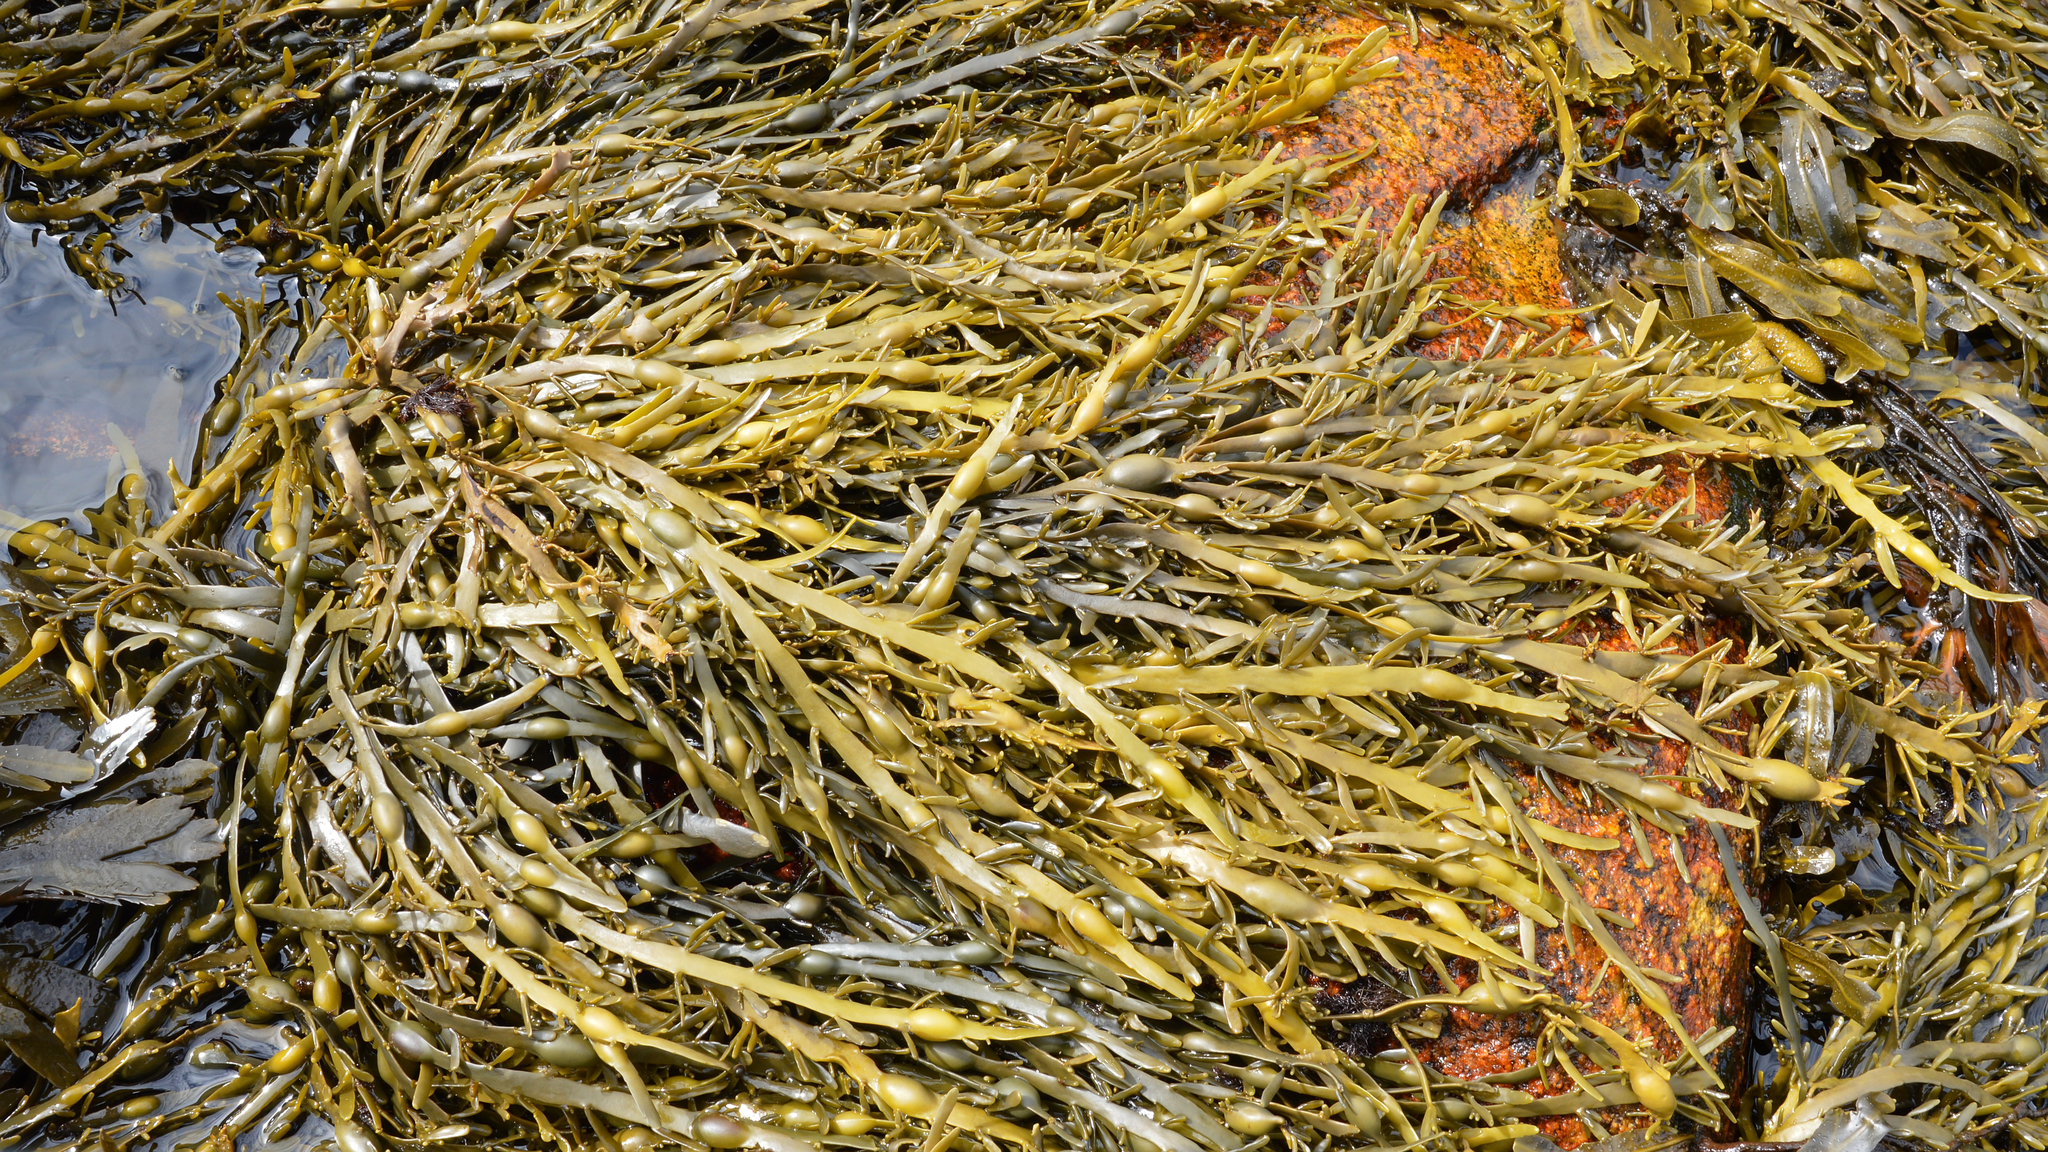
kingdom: Chromista
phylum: Ochrophyta
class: Phaeophyceae
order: Fucales
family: Fucaceae
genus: Ascophyllum
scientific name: Ascophyllum nodosum
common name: Knotted wrack
